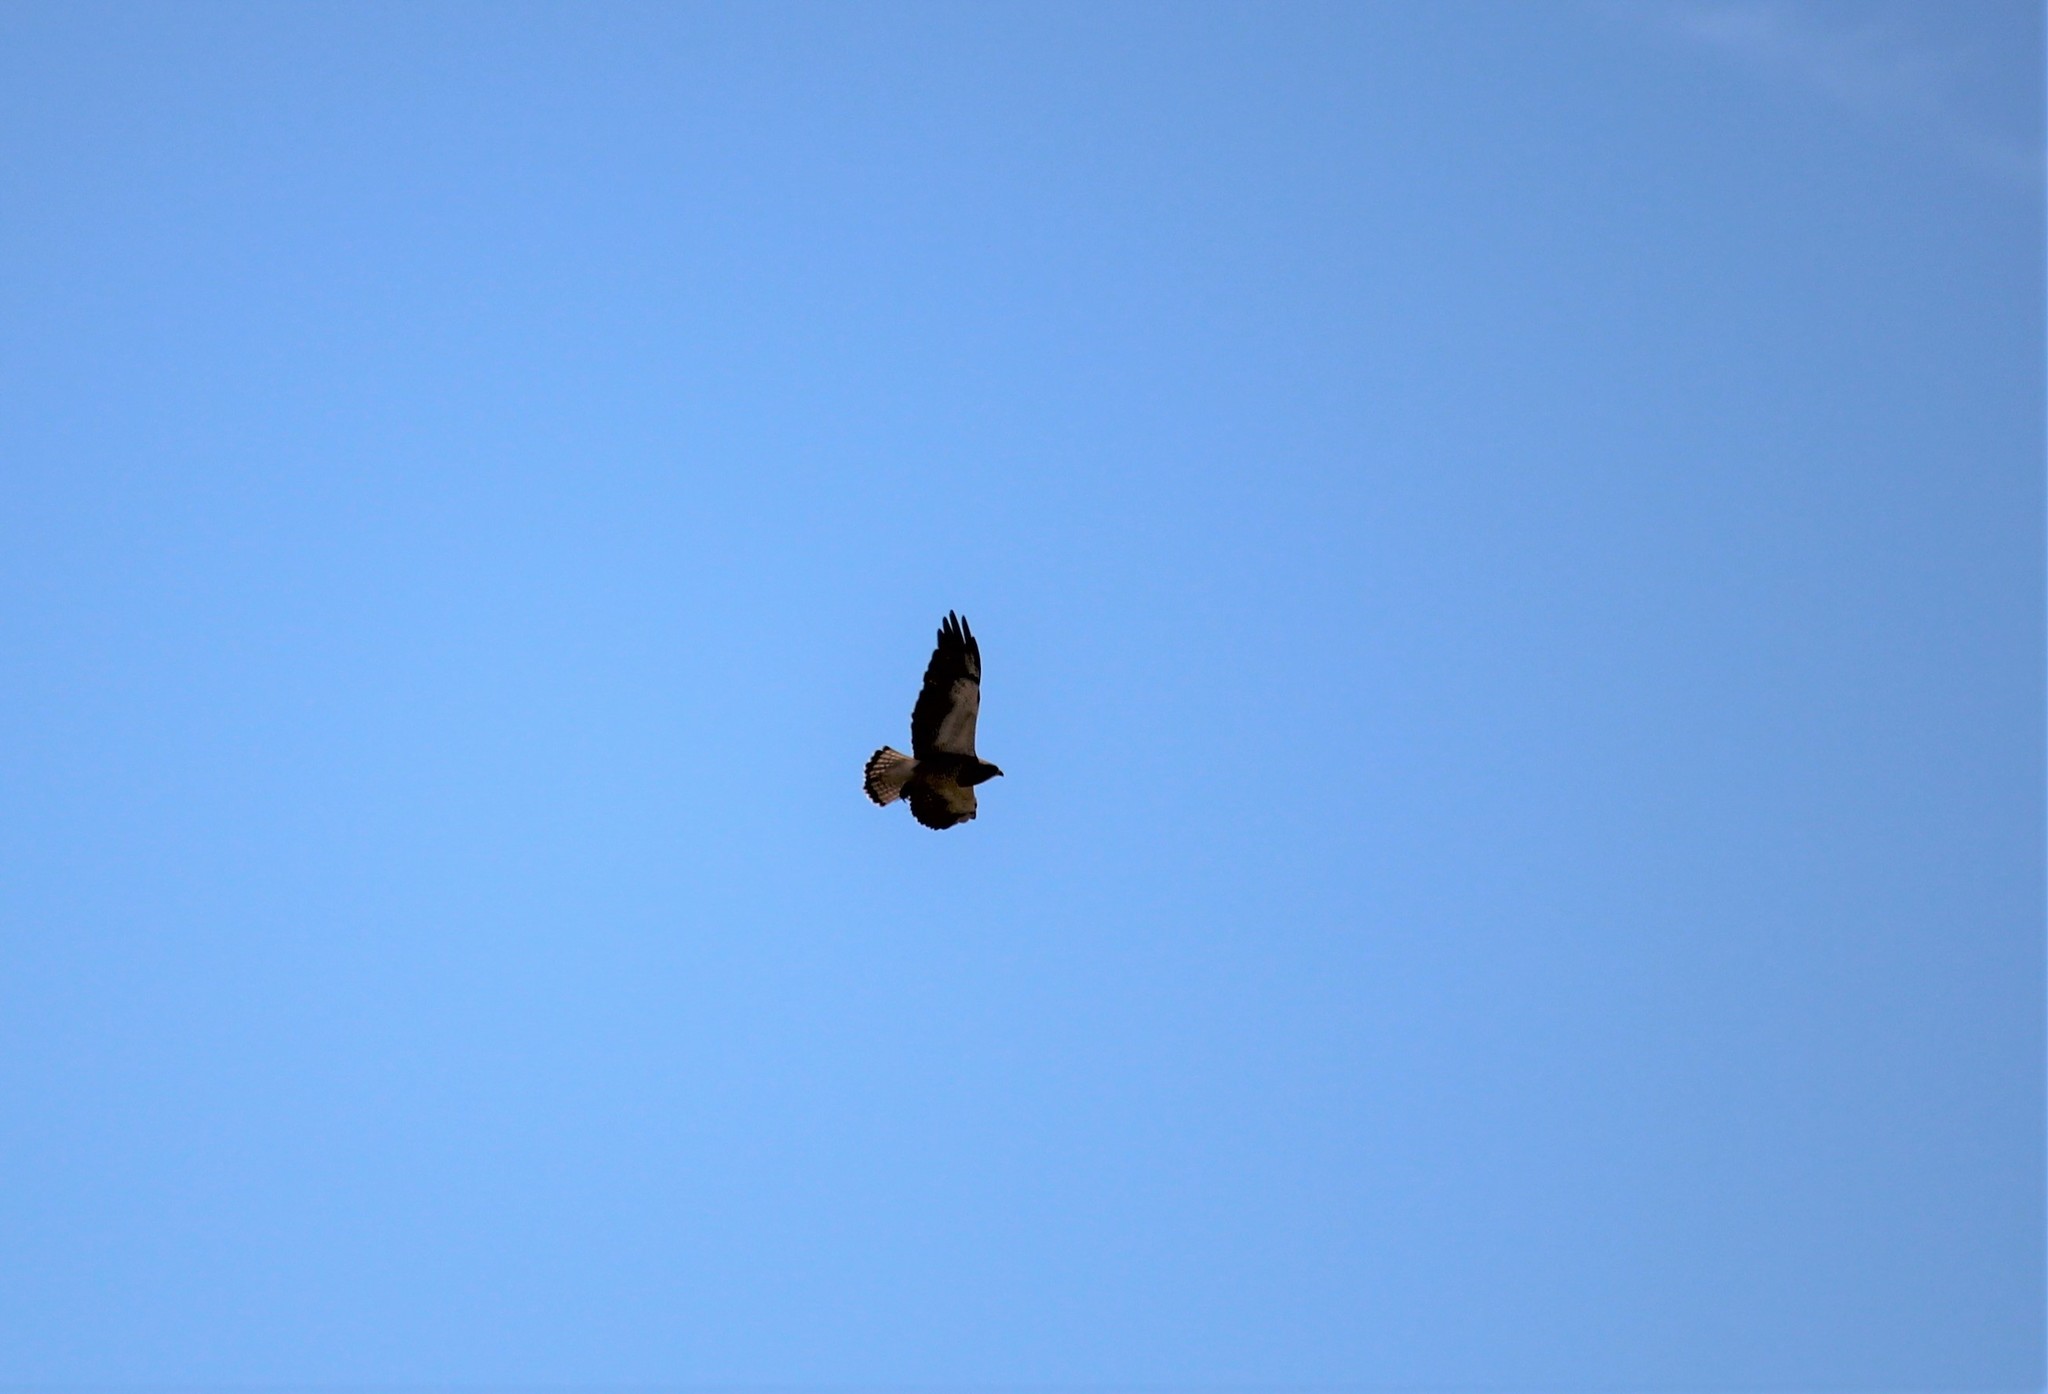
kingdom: Animalia
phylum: Chordata
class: Aves
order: Accipitriformes
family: Accipitridae
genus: Buteo
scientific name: Buteo swainsoni
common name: Swainson's hawk
